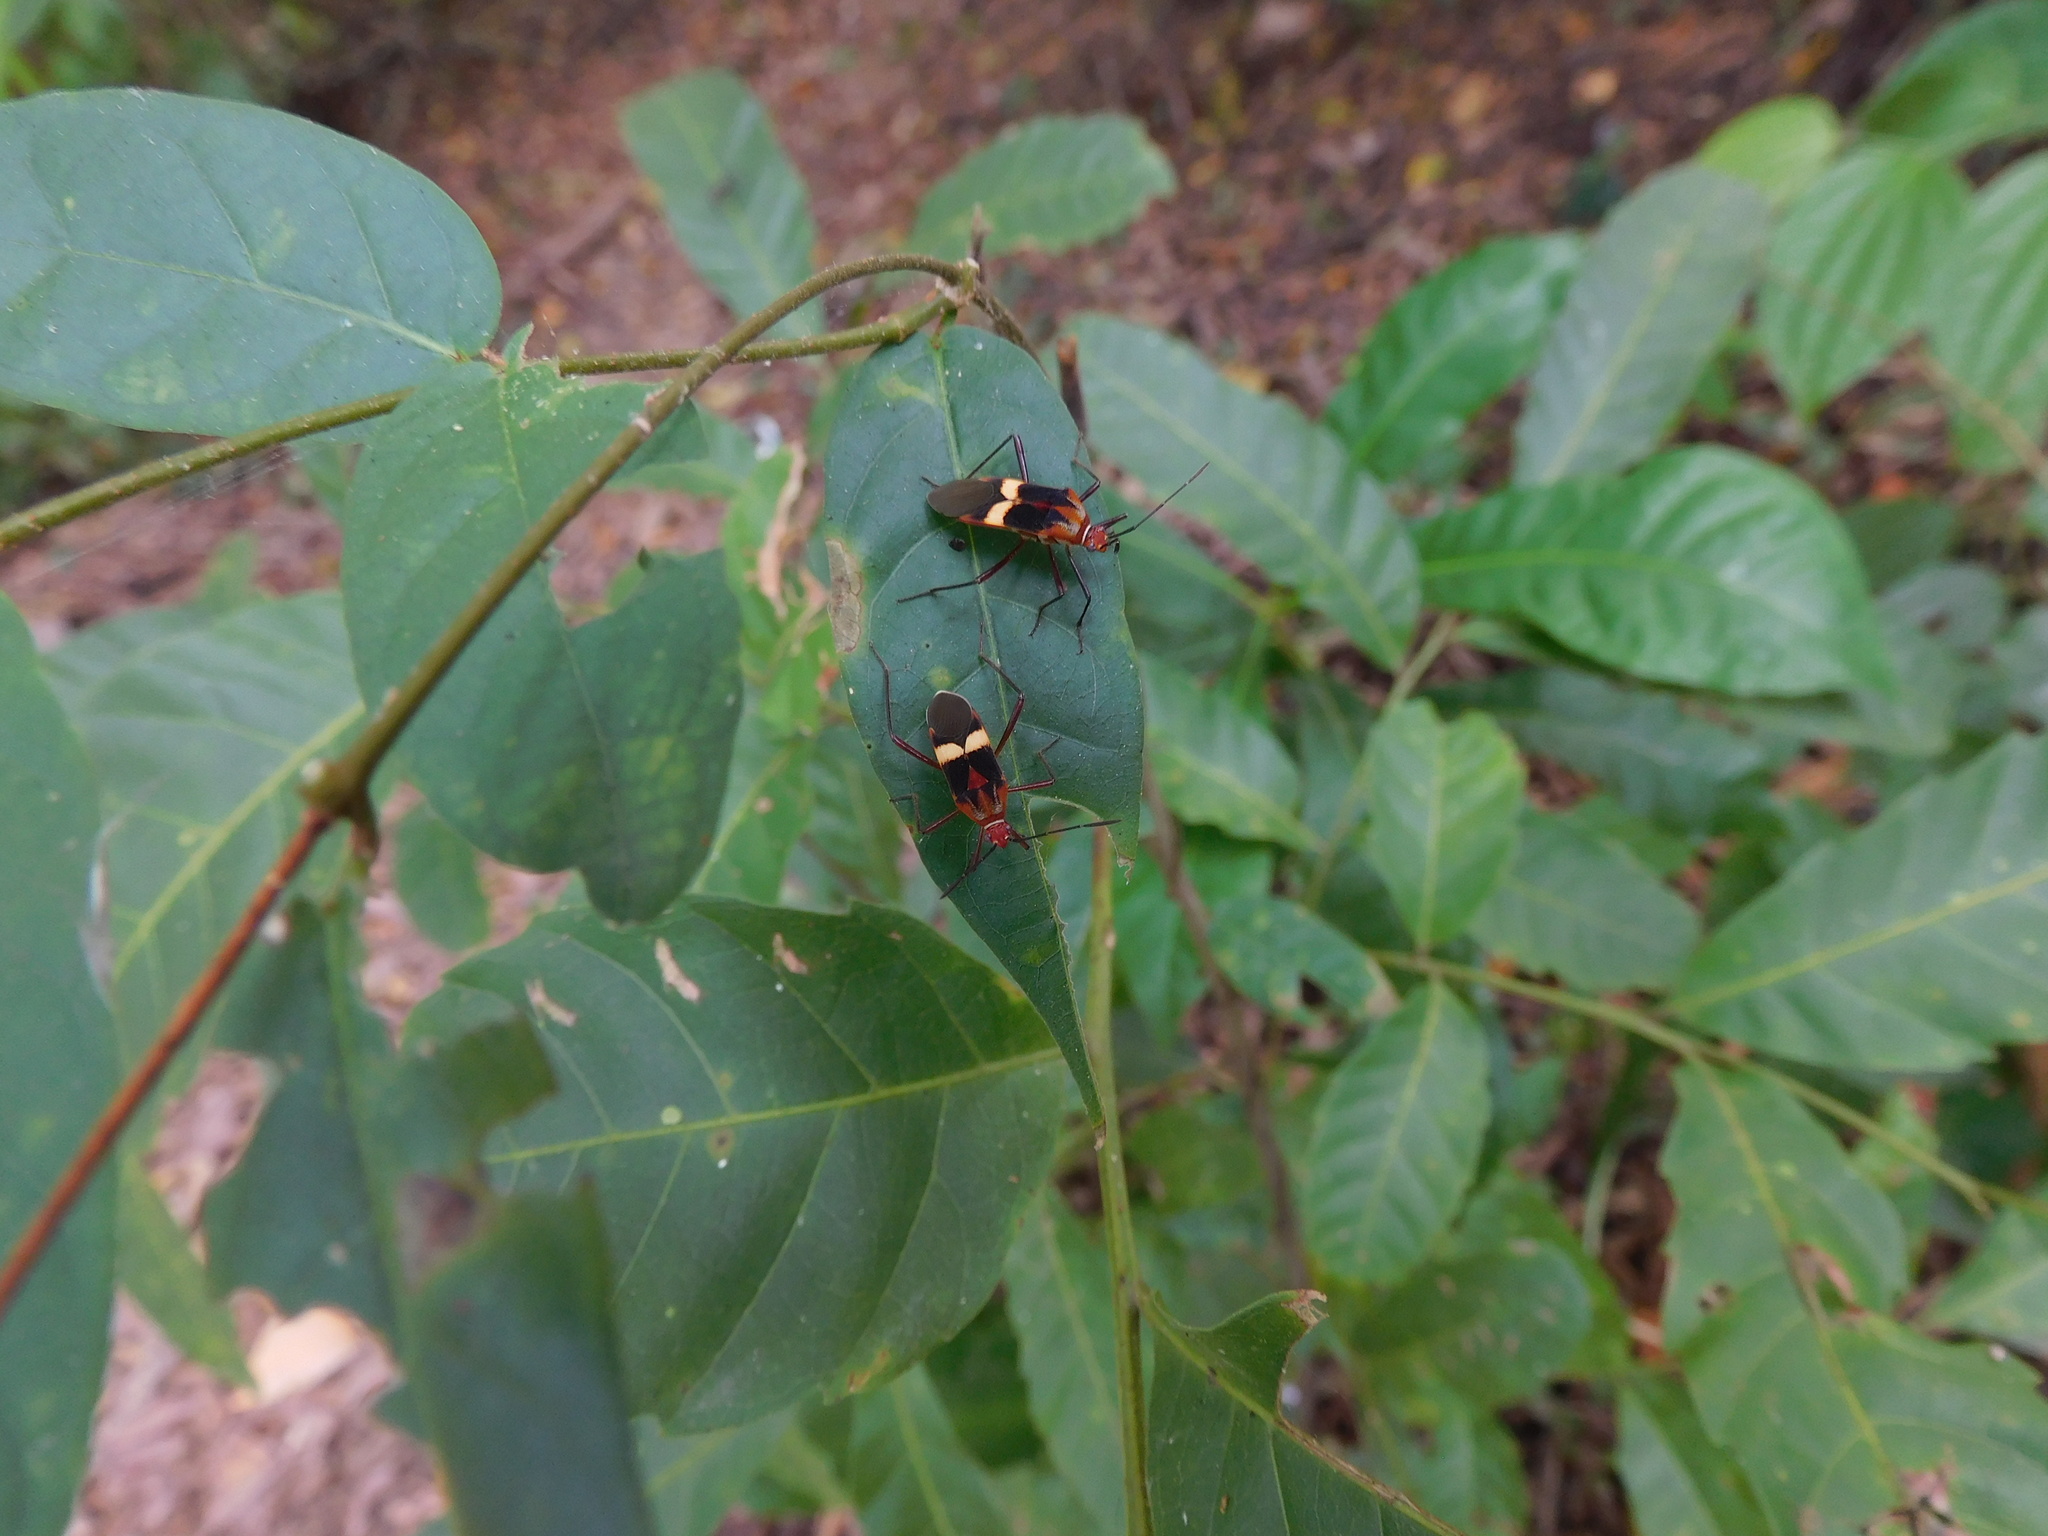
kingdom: Animalia
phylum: Arthropoda
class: Insecta
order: Hemiptera
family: Coreidae
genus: Hypselonotus
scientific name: Hypselonotus interruptus
